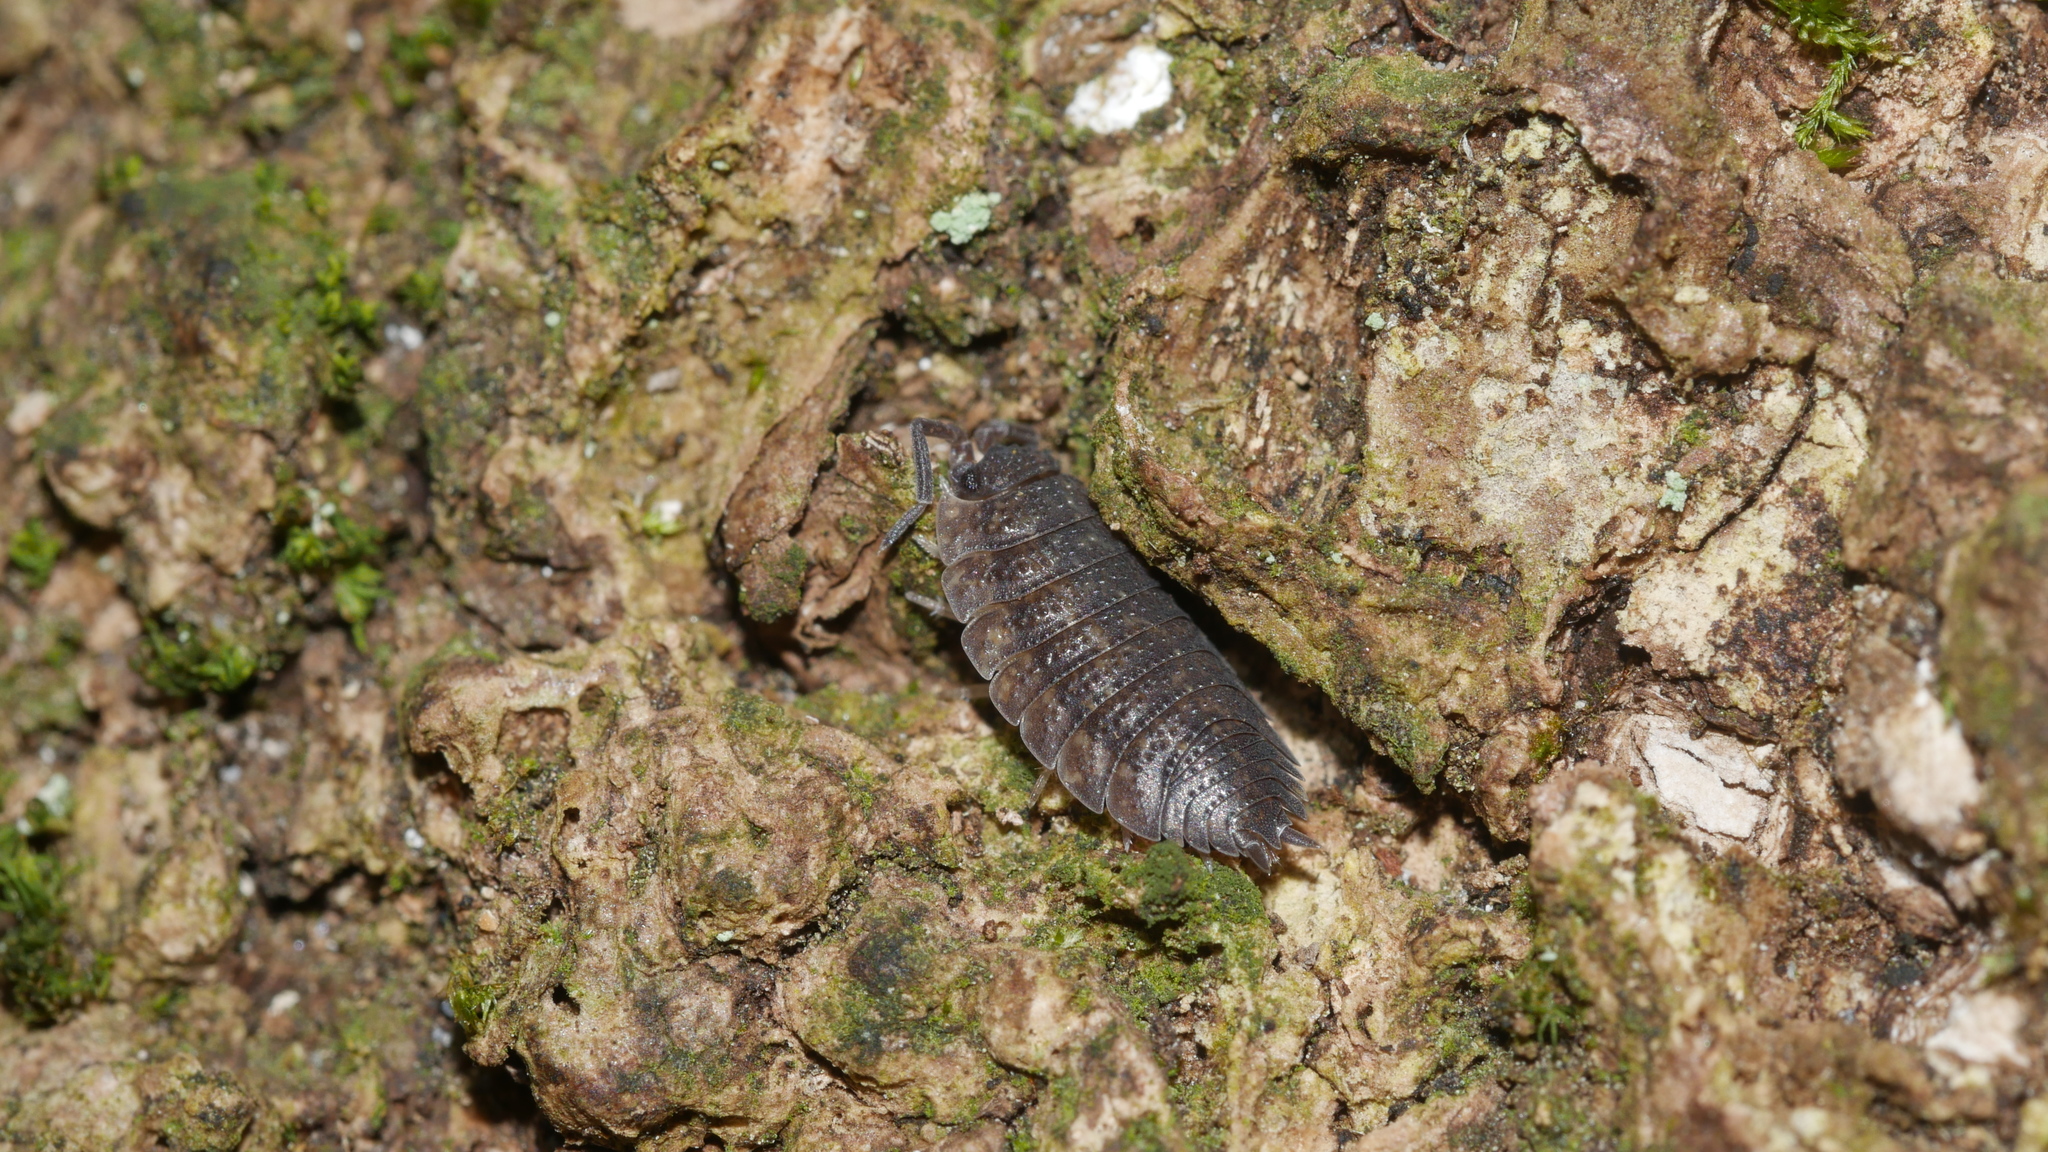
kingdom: Animalia
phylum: Arthropoda
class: Malacostraca
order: Isopoda
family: Porcellionidae
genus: Porcellio
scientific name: Porcellio scaber
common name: Common rough woodlouse
